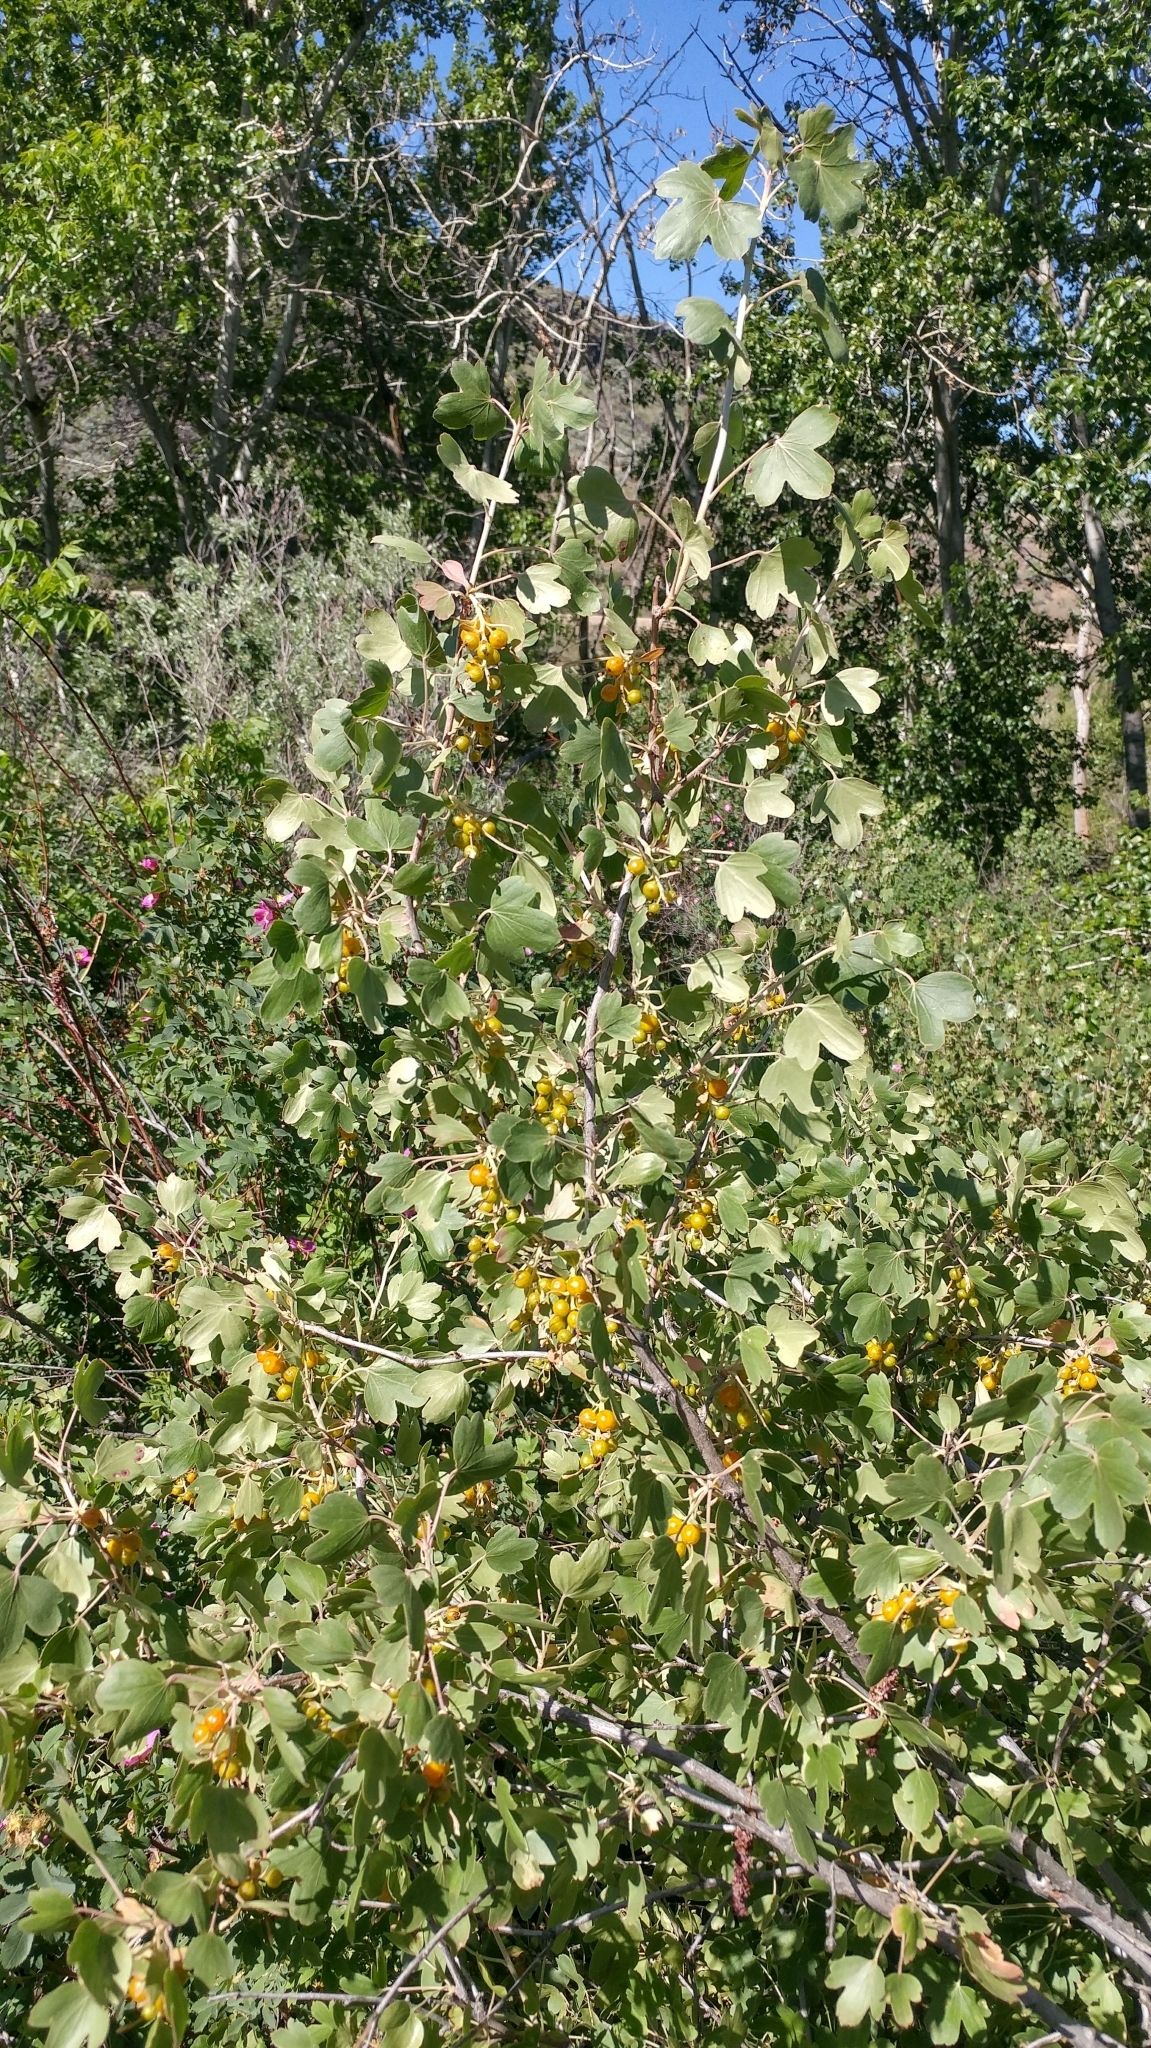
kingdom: Plantae
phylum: Tracheophyta
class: Magnoliopsida
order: Saxifragales
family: Grossulariaceae
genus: Ribes
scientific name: Ribes aureum
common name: Golden currant
